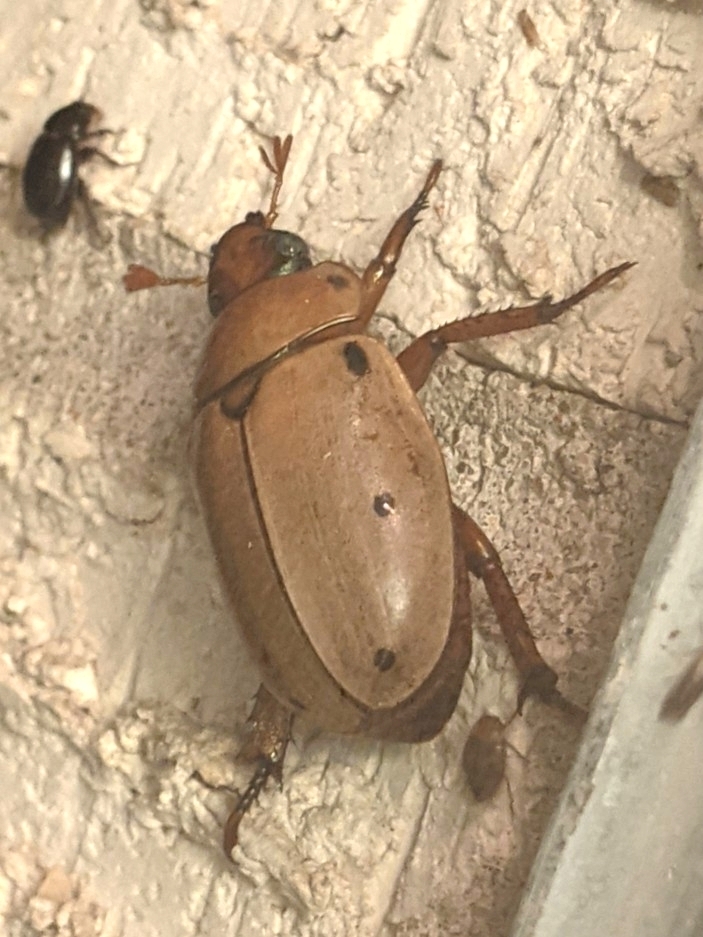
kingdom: Animalia
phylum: Arthropoda
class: Insecta
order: Coleoptera
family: Scarabaeidae
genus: Pelidnota
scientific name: Pelidnota punctata
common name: Grapevine beetle
